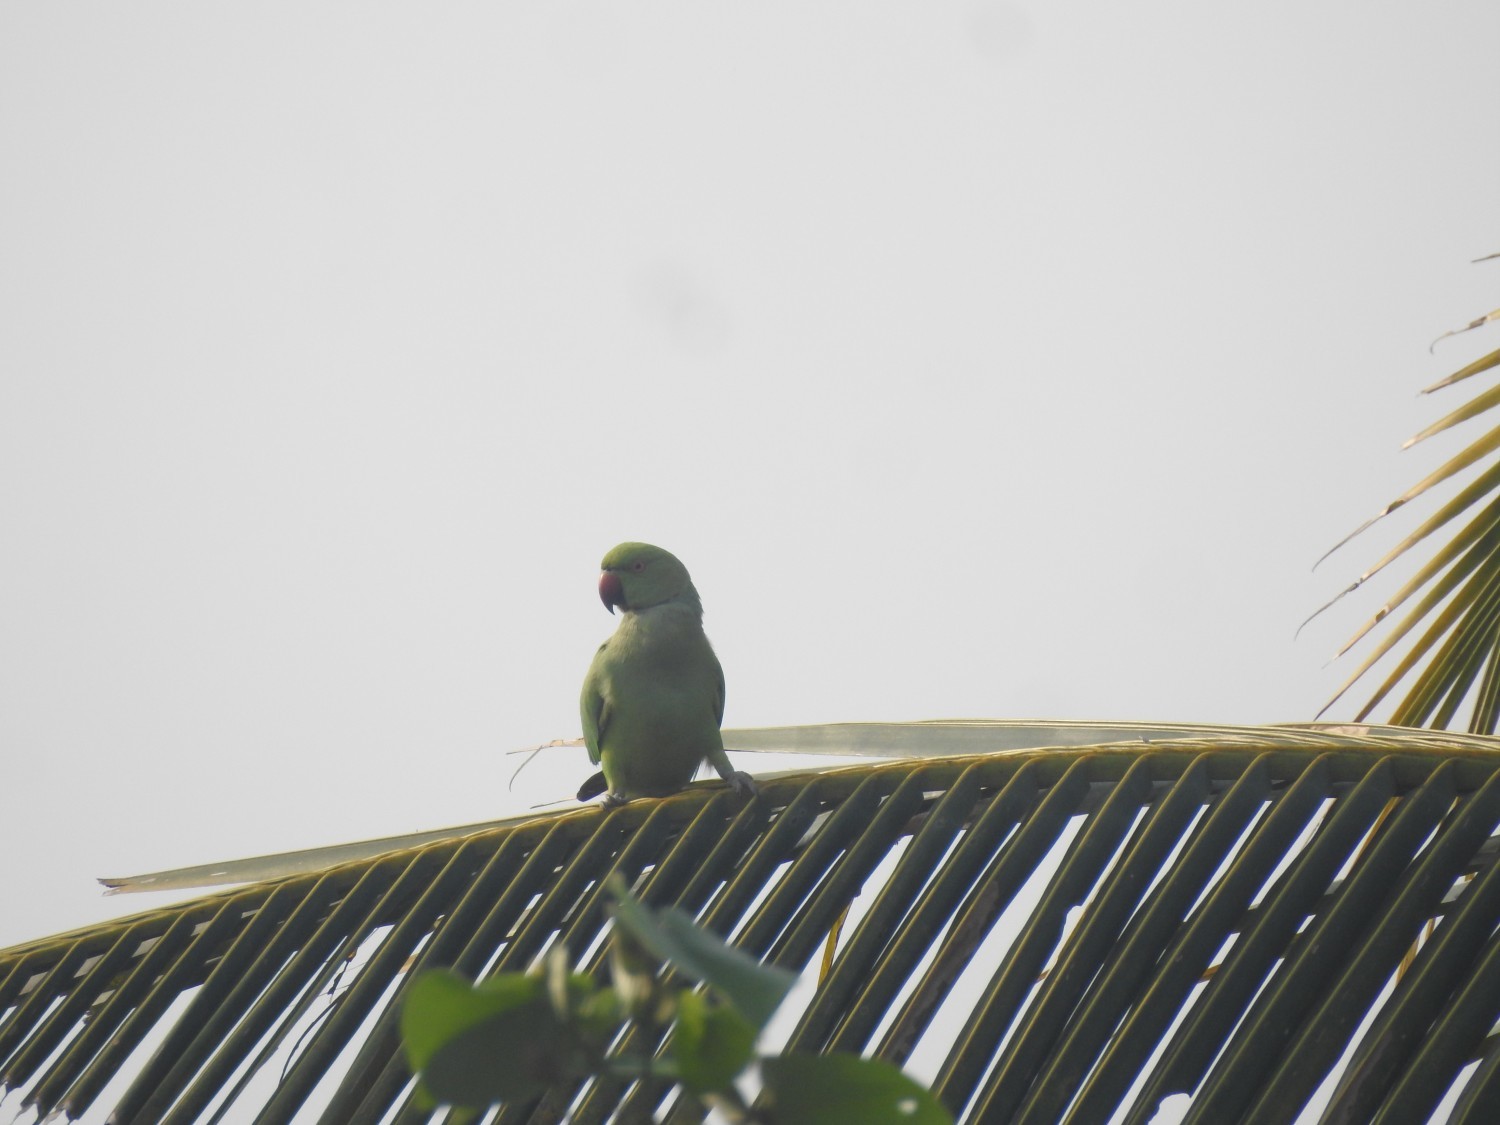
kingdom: Animalia
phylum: Chordata
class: Aves
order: Psittaciformes
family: Psittacidae
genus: Psittacula
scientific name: Psittacula krameri
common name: Rose-ringed parakeet
